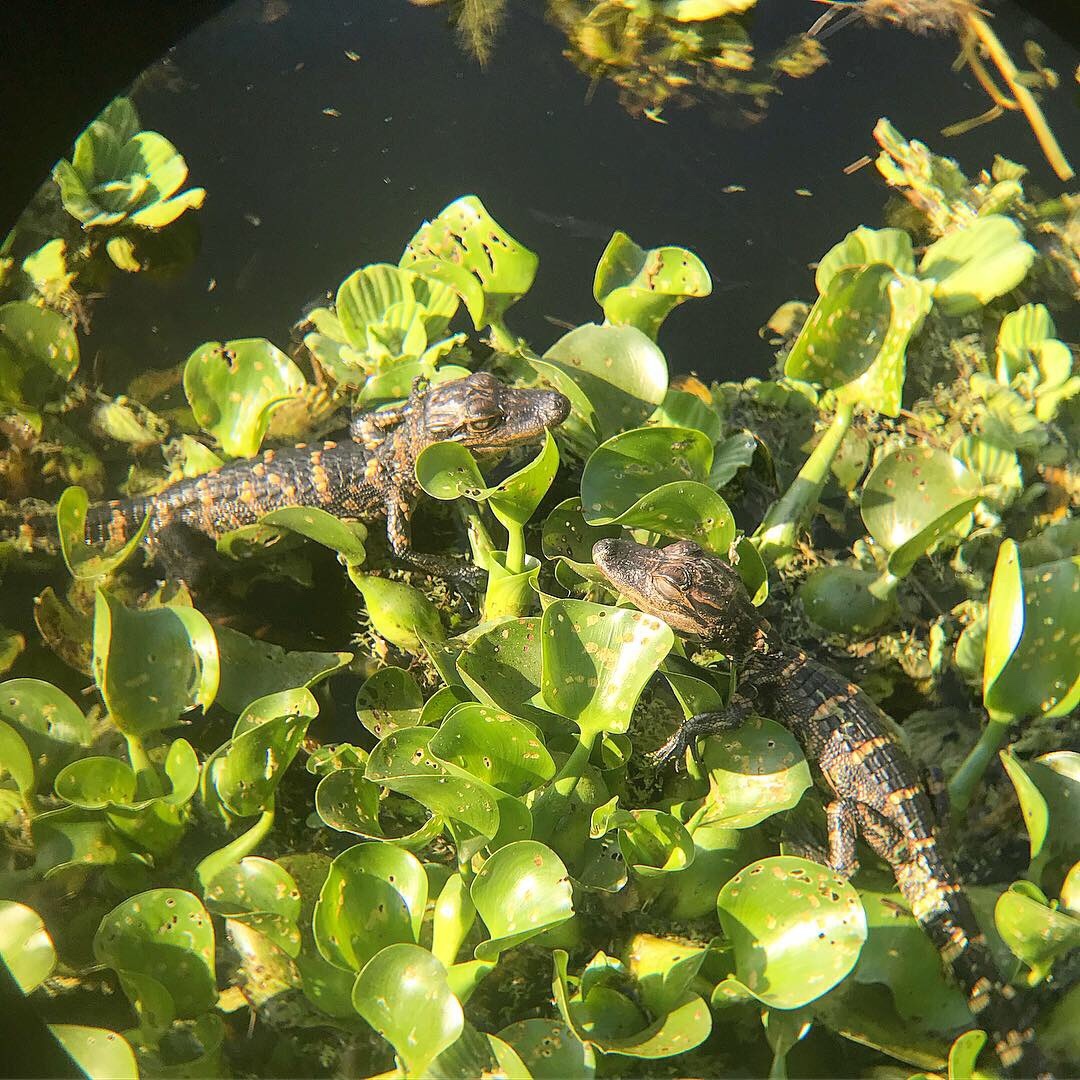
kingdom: Animalia
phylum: Chordata
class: Crocodylia
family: Alligatoridae
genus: Alligator
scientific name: Alligator mississippiensis
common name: American alligator
